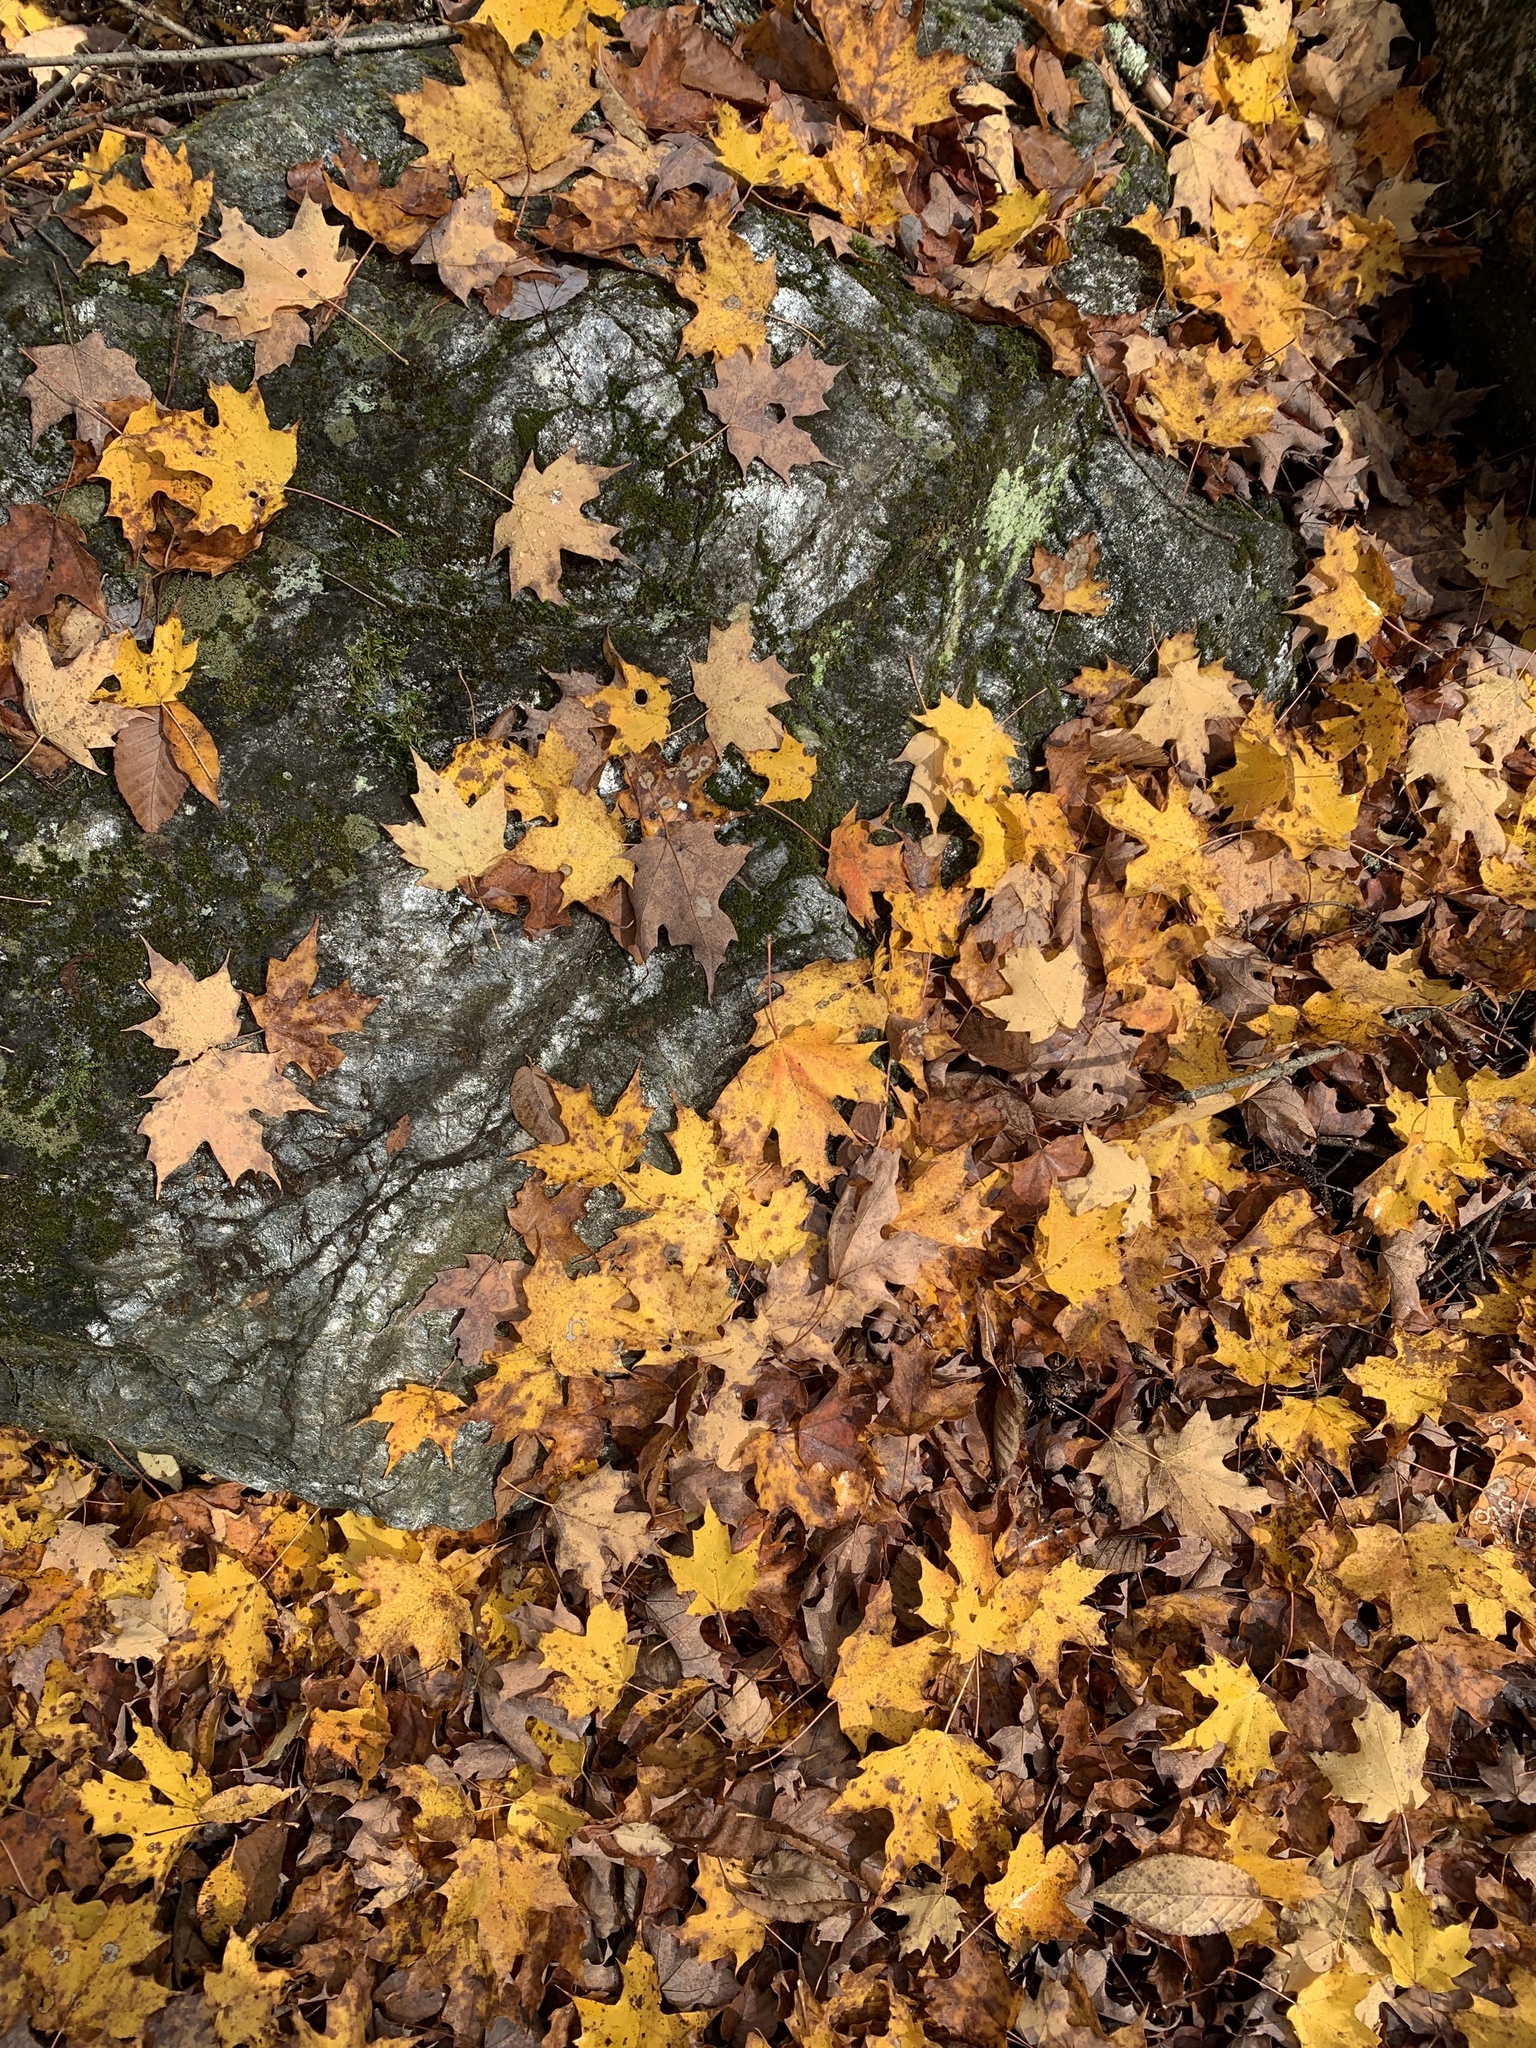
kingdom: Plantae
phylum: Tracheophyta
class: Magnoliopsida
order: Sapindales
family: Sapindaceae
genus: Acer
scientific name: Acer saccharum
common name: Sugar maple
